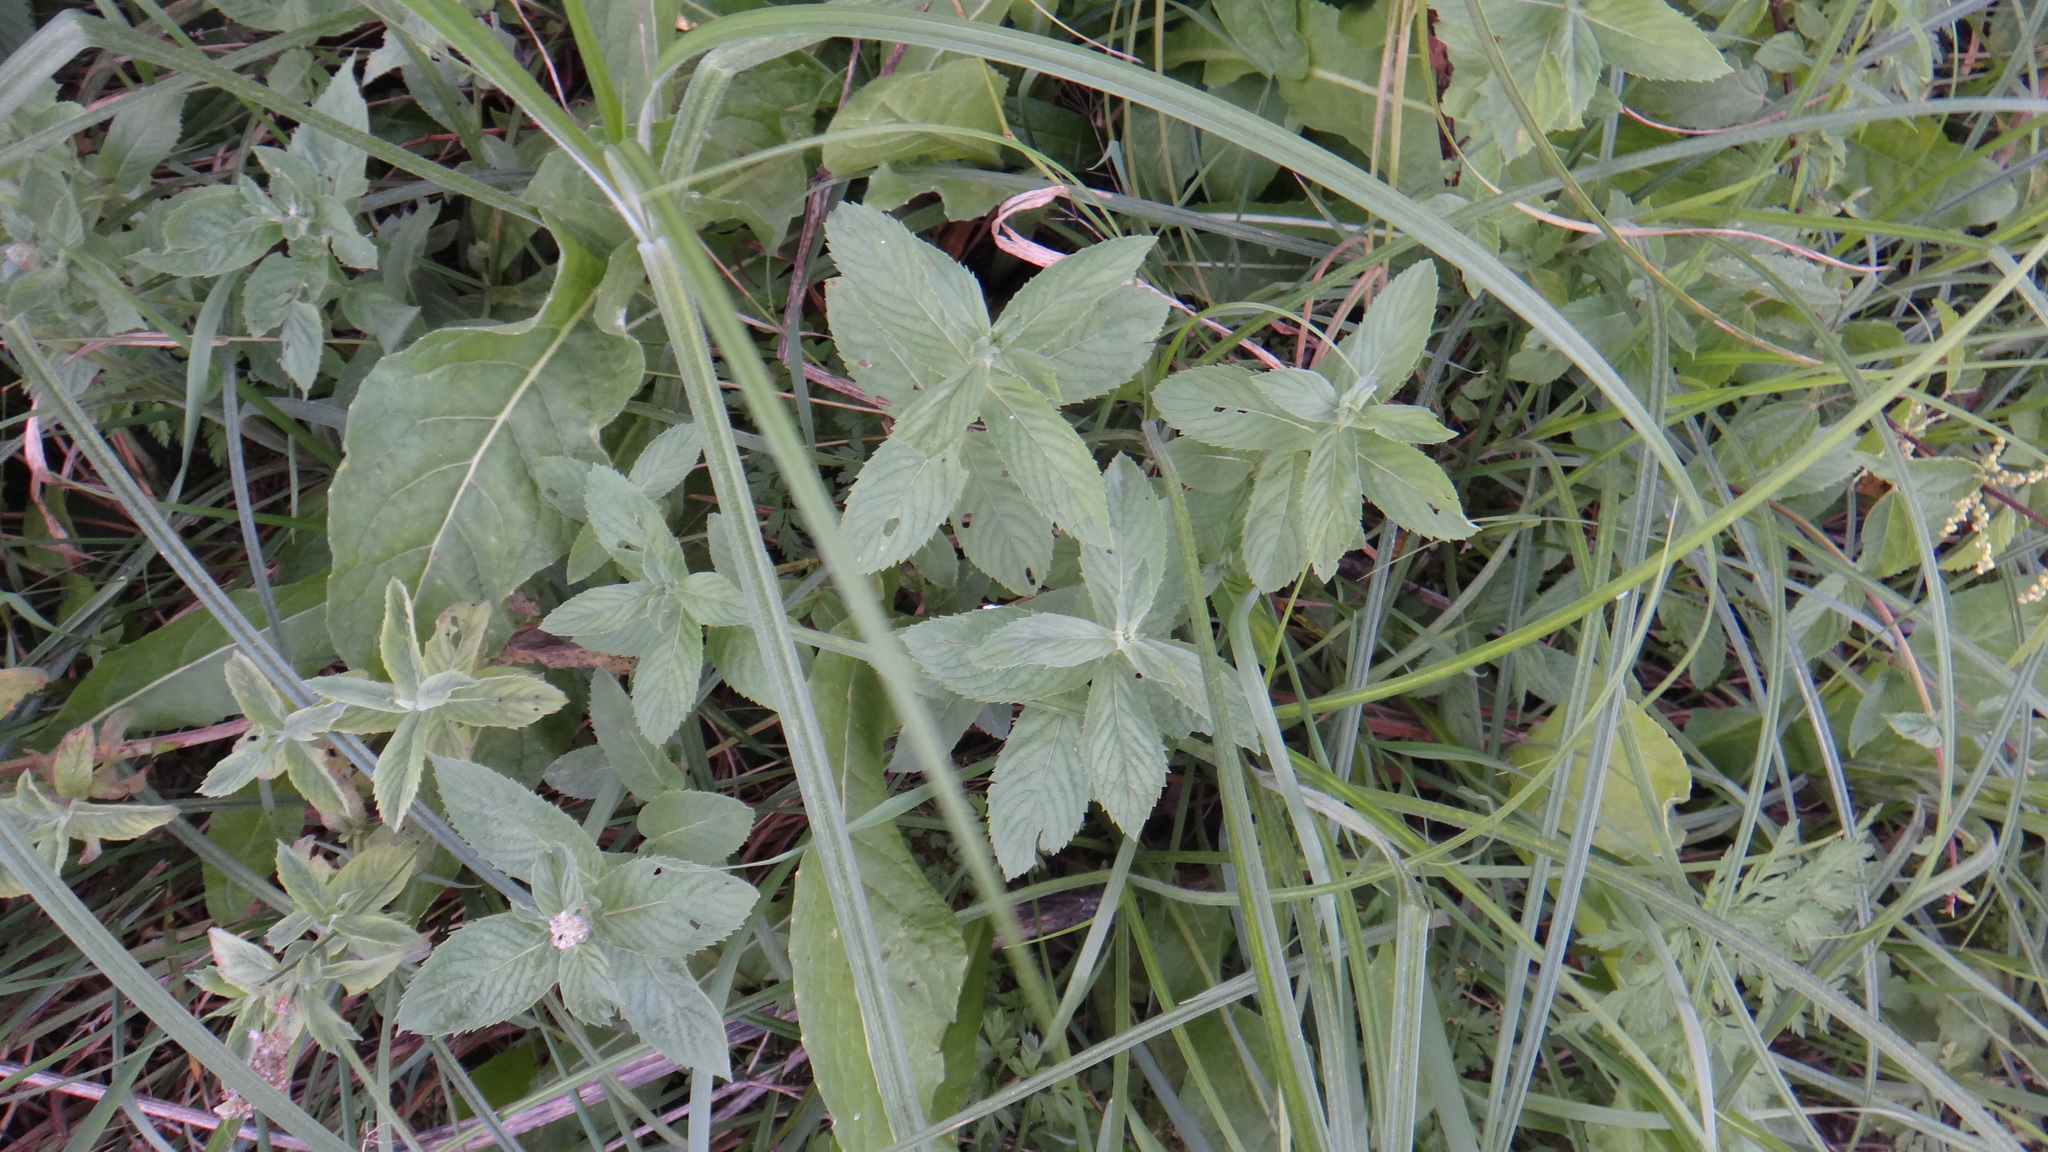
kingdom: Plantae
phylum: Tracheophyta
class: Magnoliopsida
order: Lamiales
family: Lamiaceae
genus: Mentha
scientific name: Mentha longifolia
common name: Horse mint
